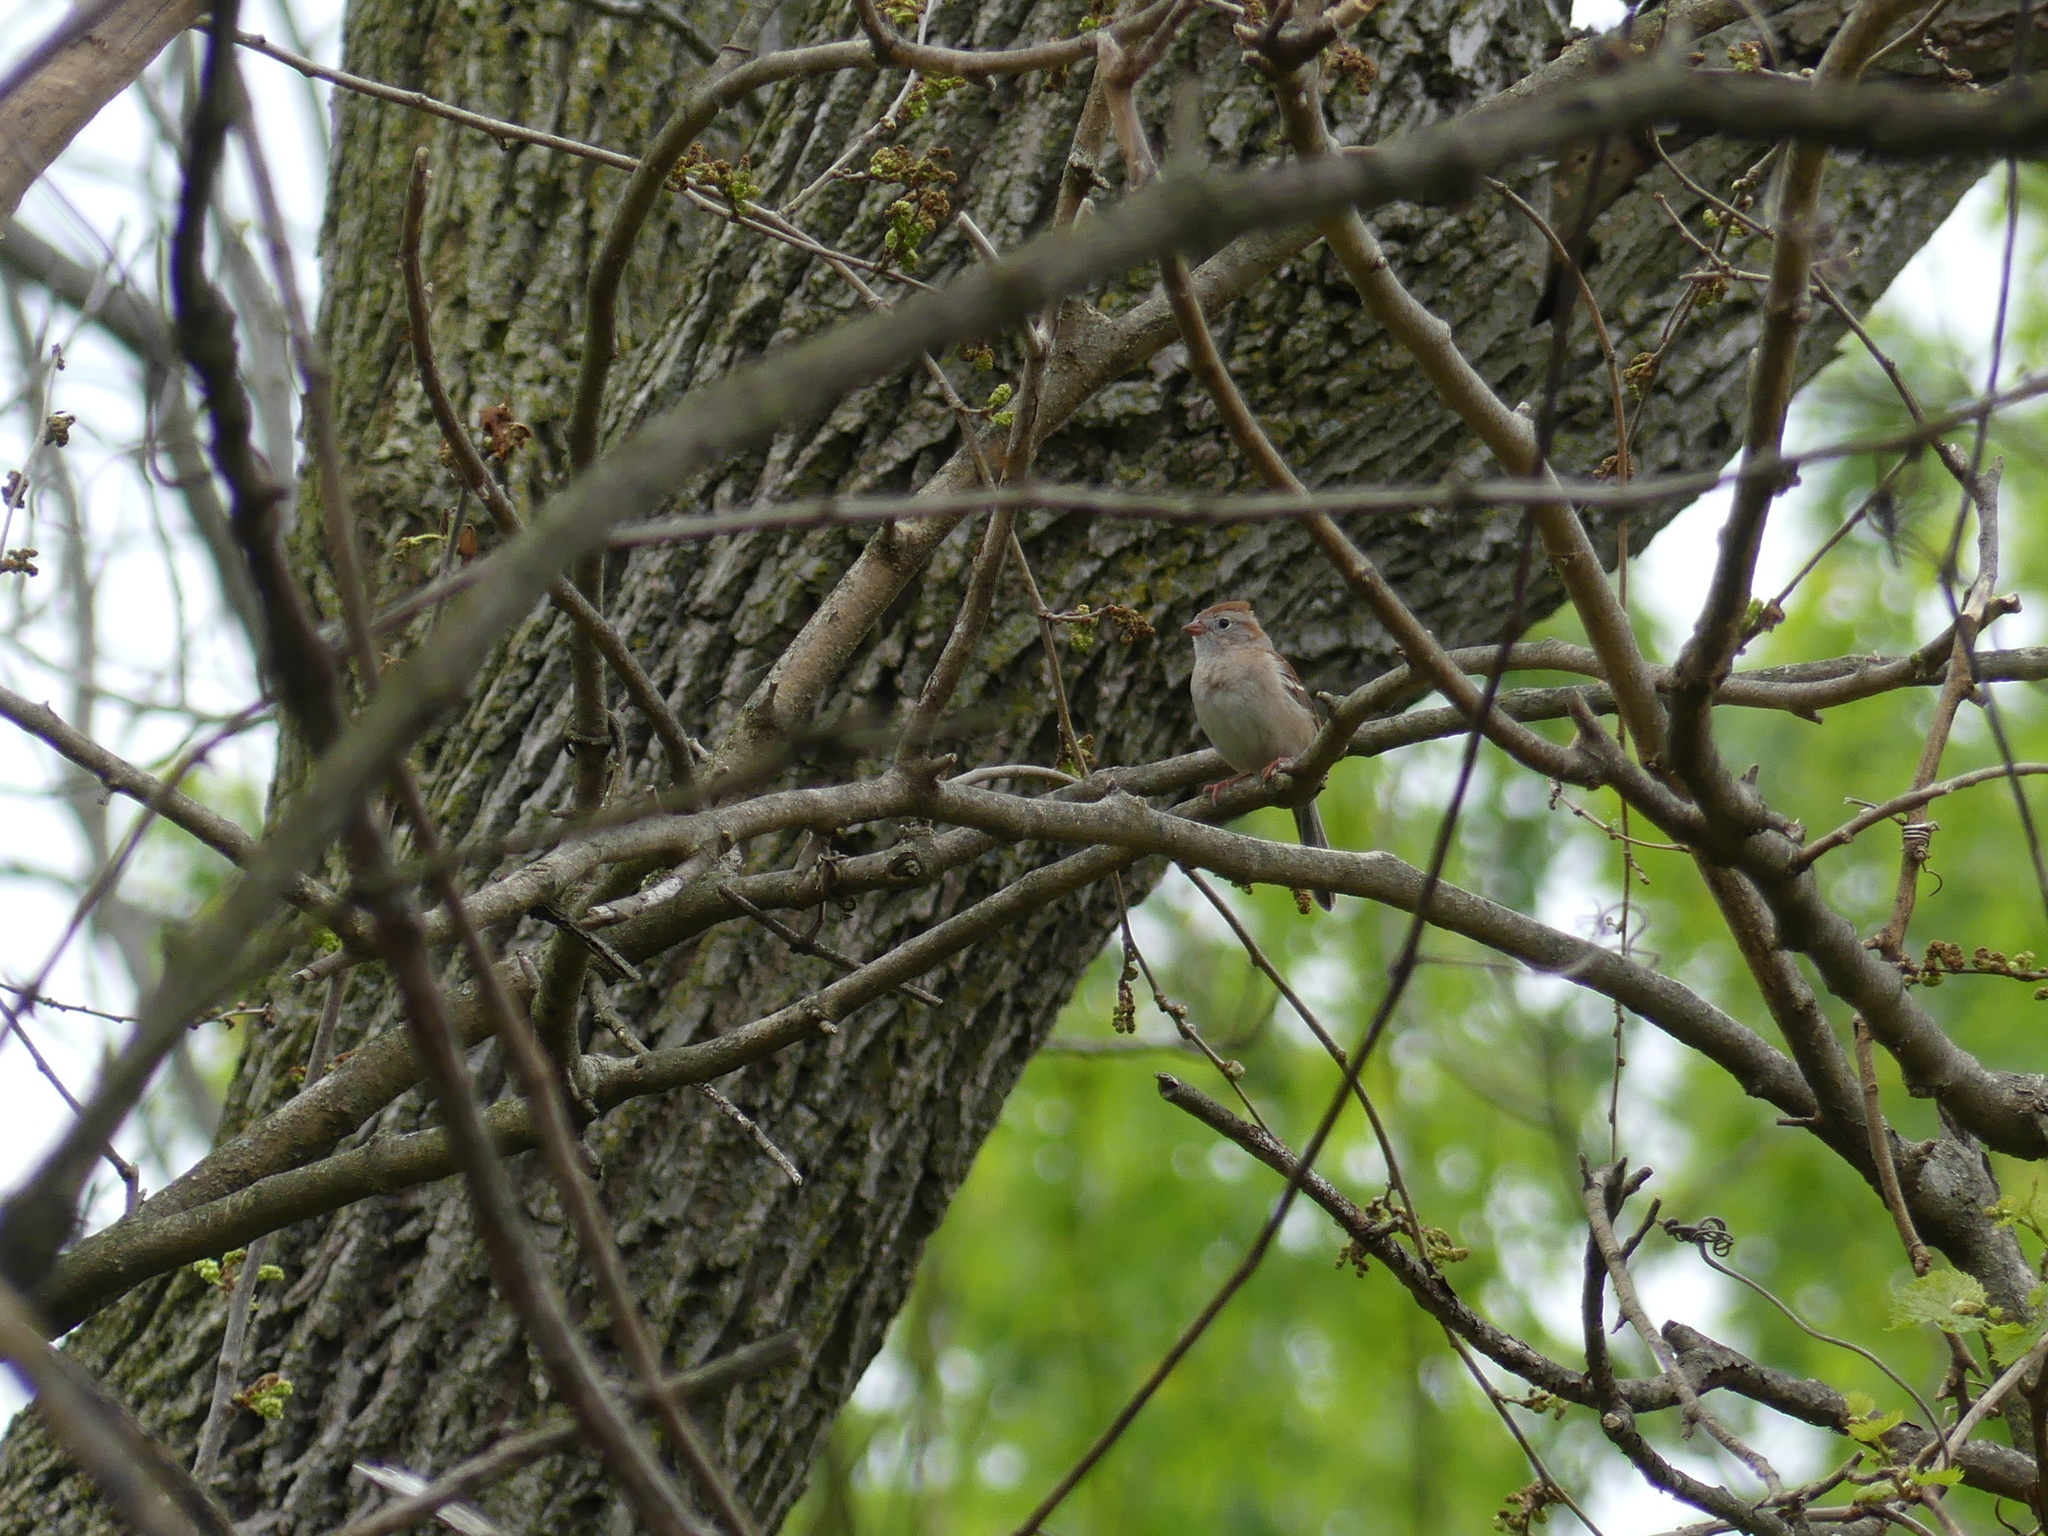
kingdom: Animalia
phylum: Chordata
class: Aves
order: Passeriformes
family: Passerellidae
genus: Spizella
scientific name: Spizella pusilla
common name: Field sparrow
